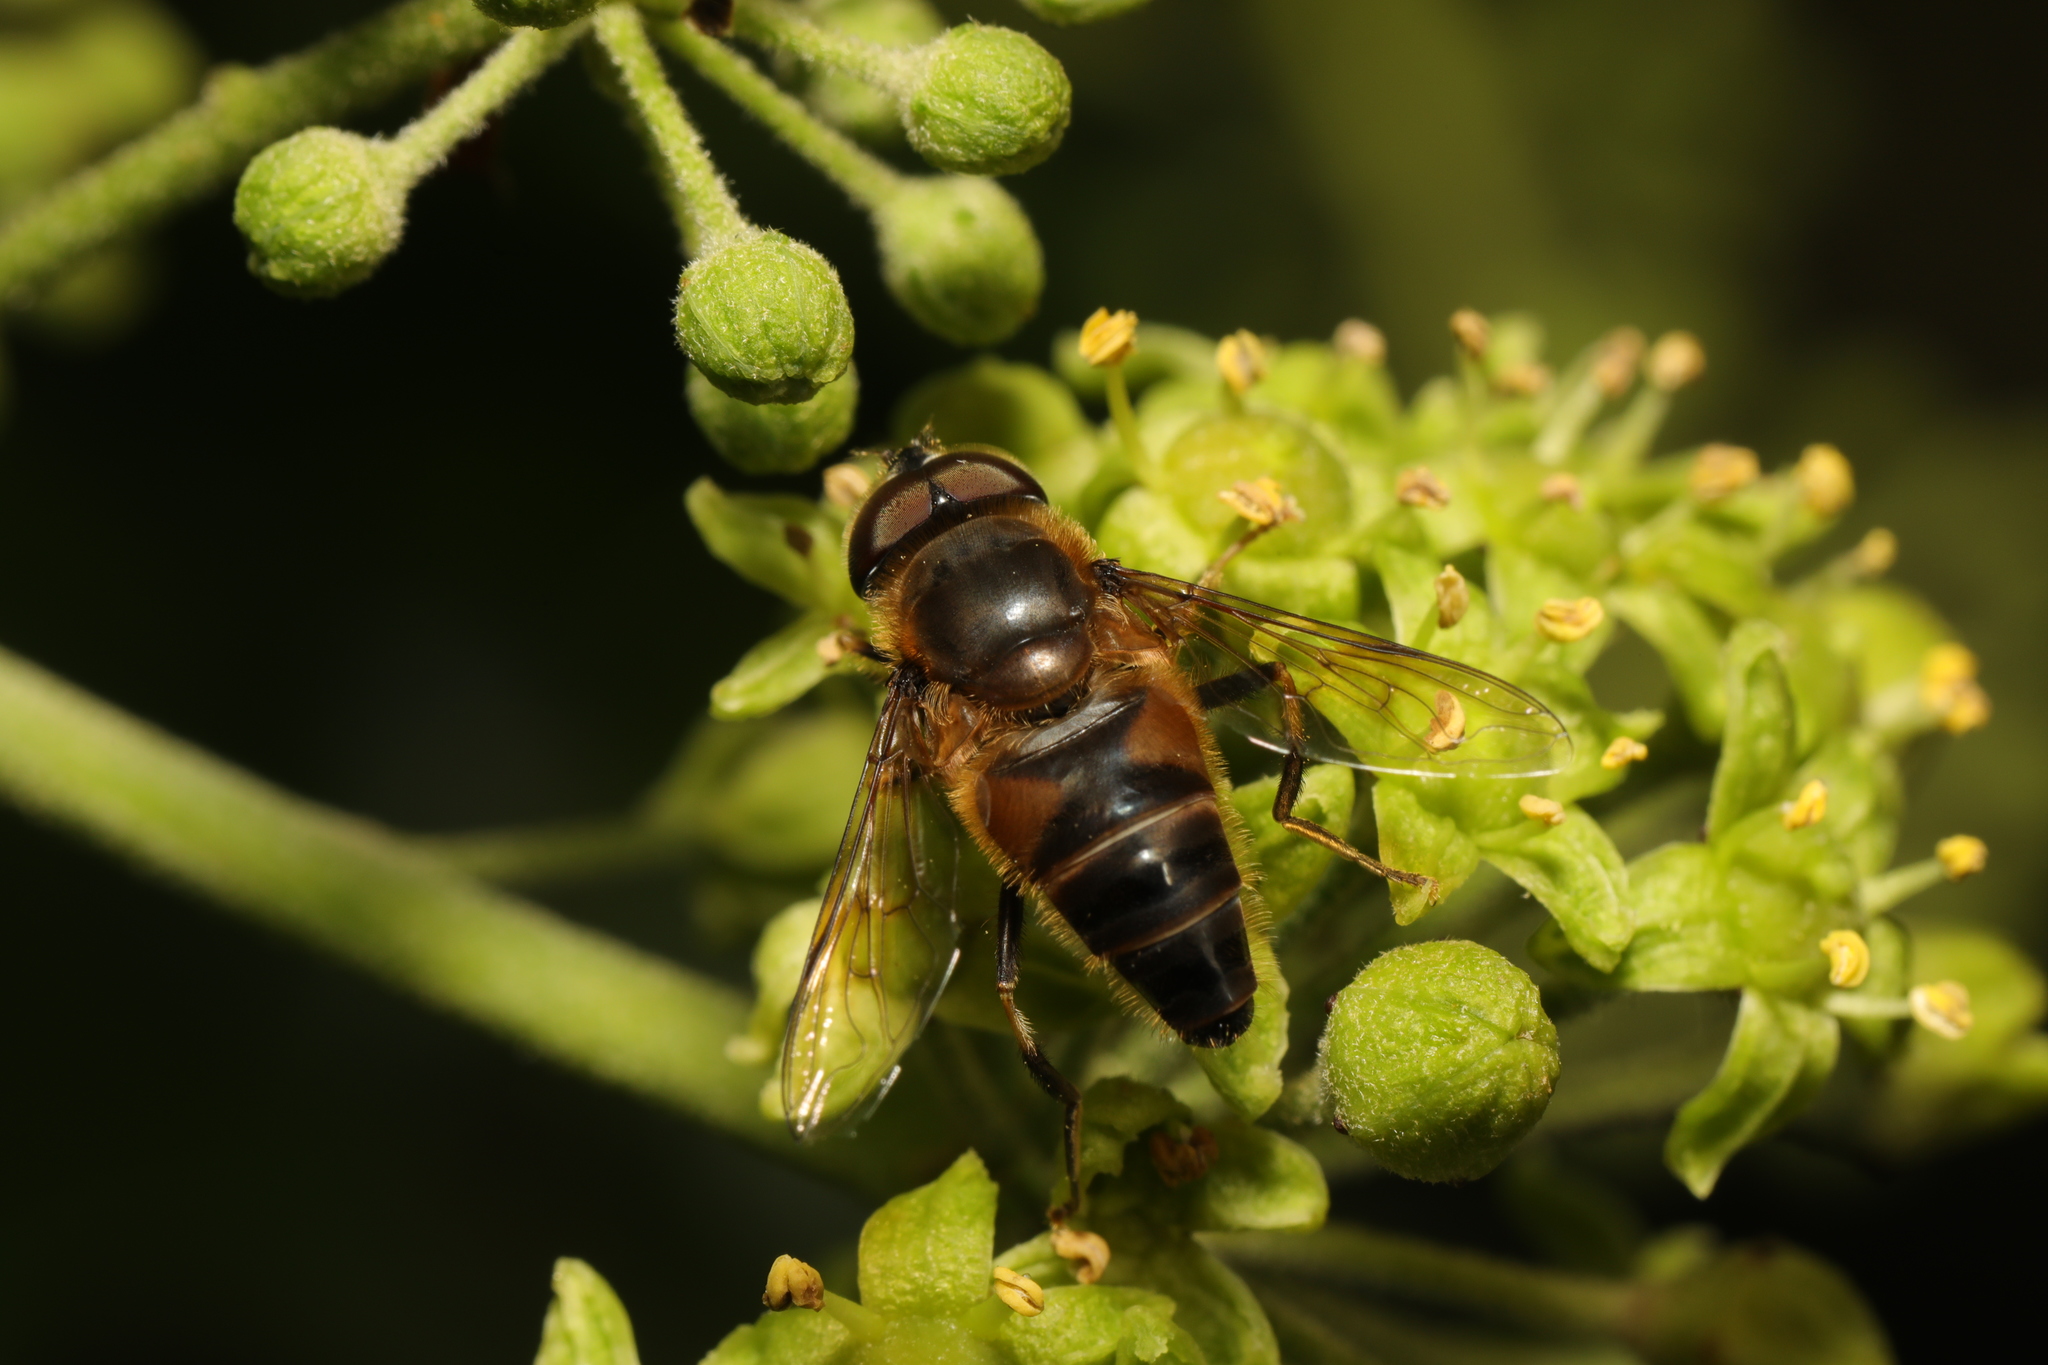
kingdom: Animalia
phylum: Arthropoda
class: Insecta
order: Diptera
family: Syrphidae
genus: Eristalis
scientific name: Eristalis pertinax
